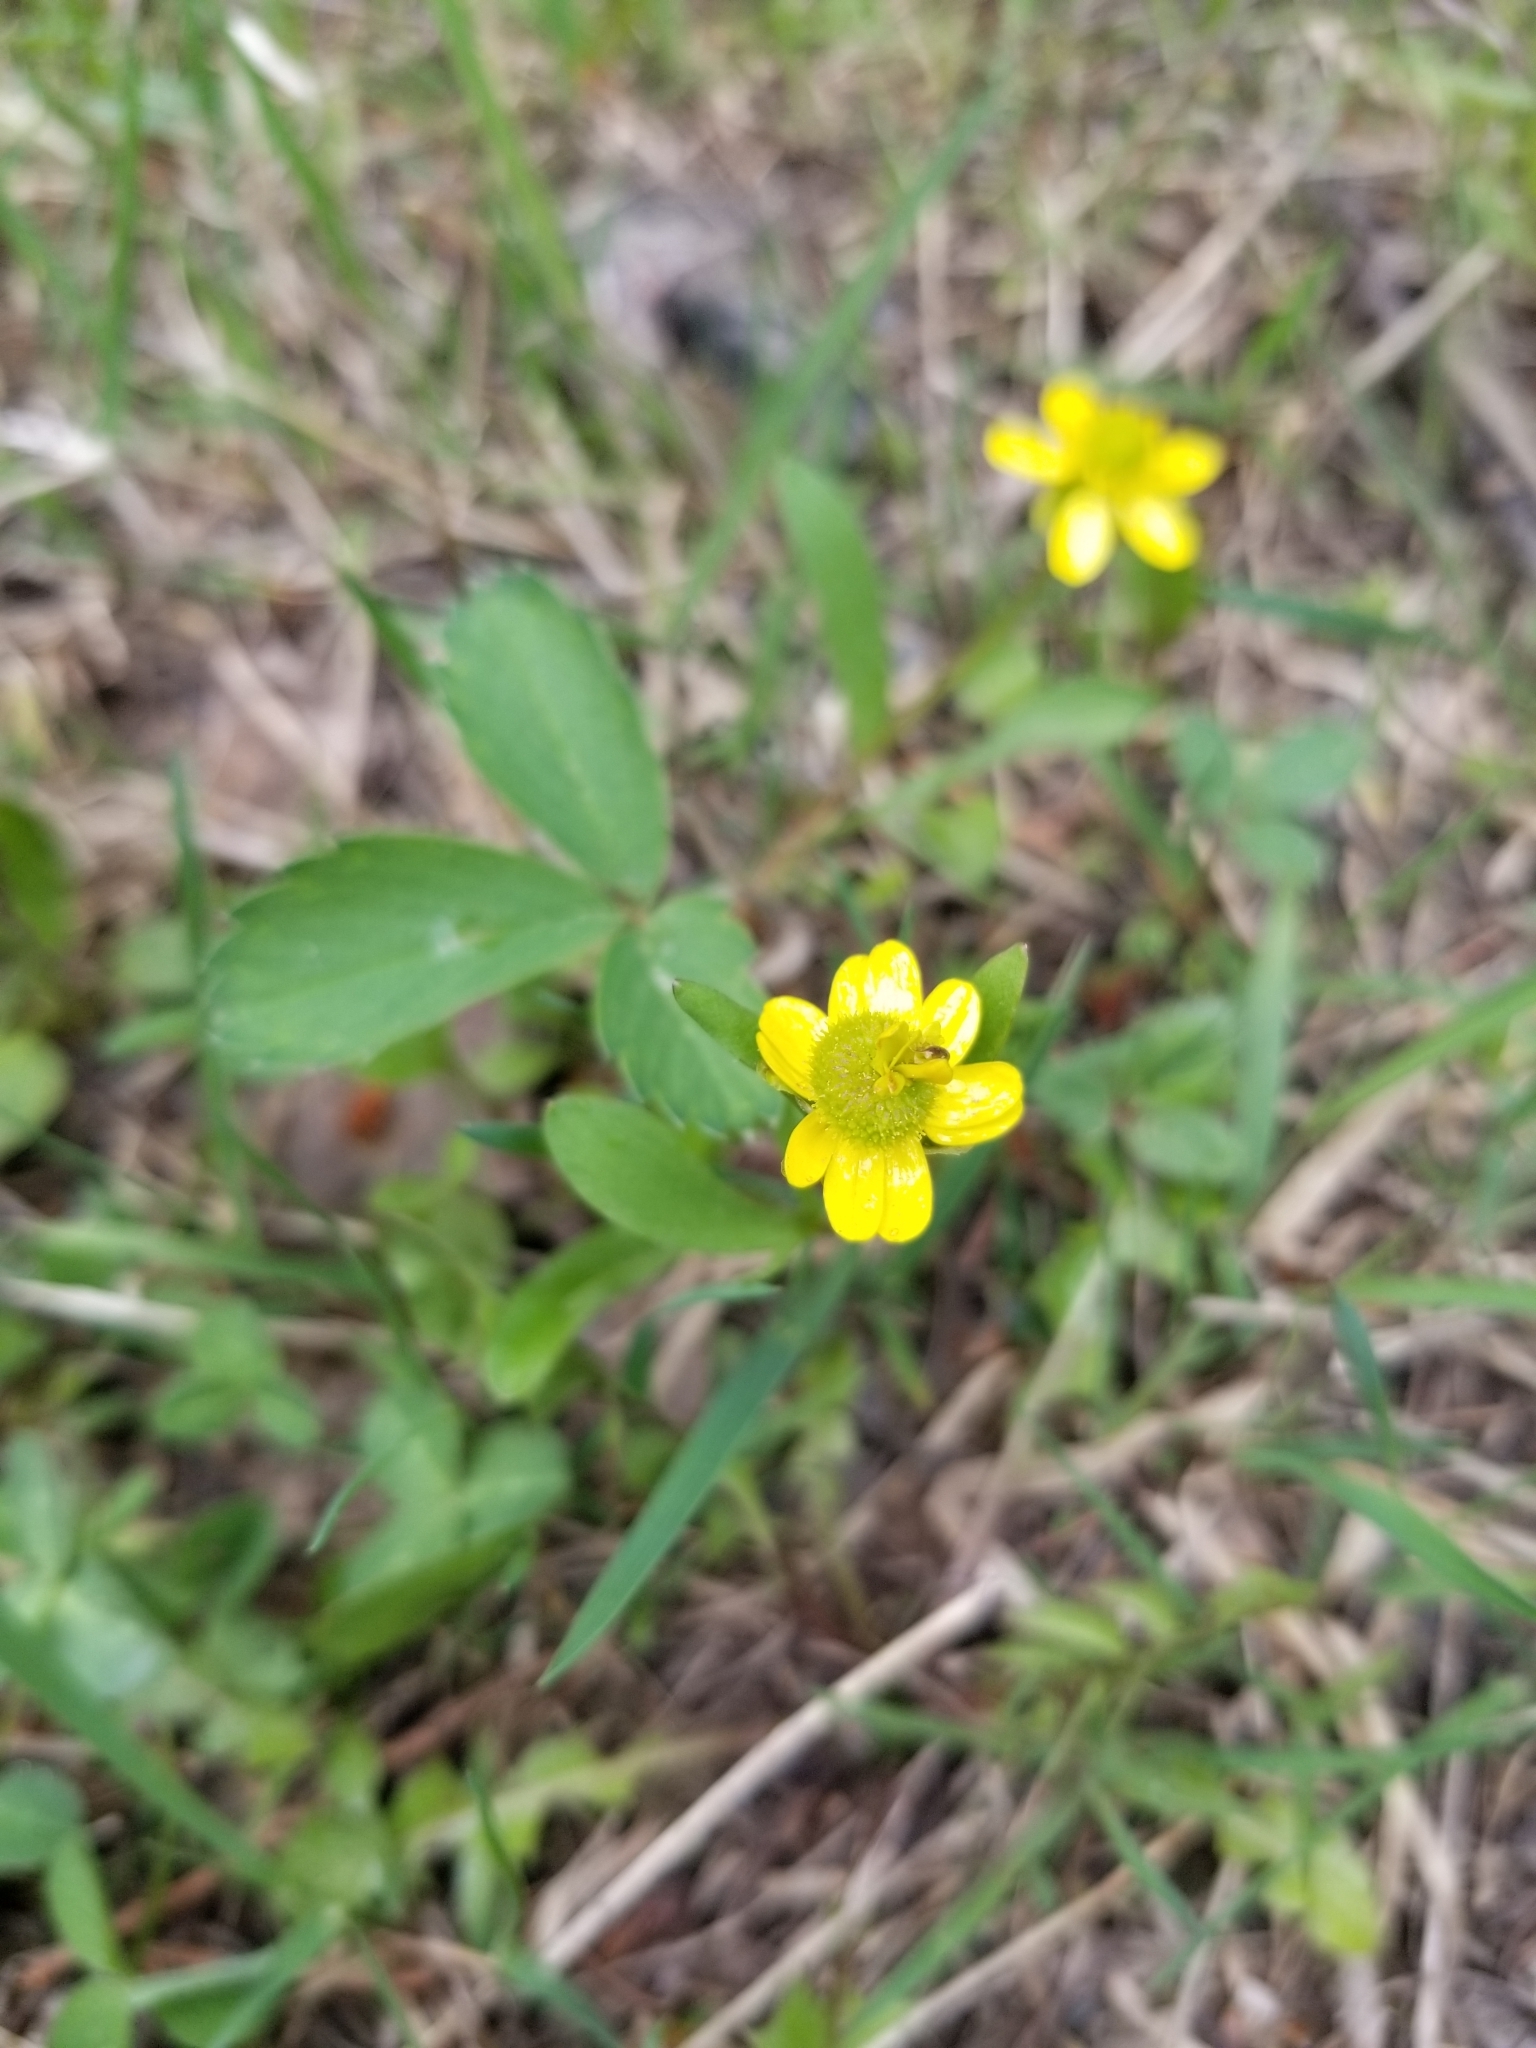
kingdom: Plantae
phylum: Tracheophyta
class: Magnoliopsida
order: Ranunculales
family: Ranunculaceae
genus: Ranunculus
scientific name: Ranunculus glaberrimus
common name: Sagebrush buttercup
